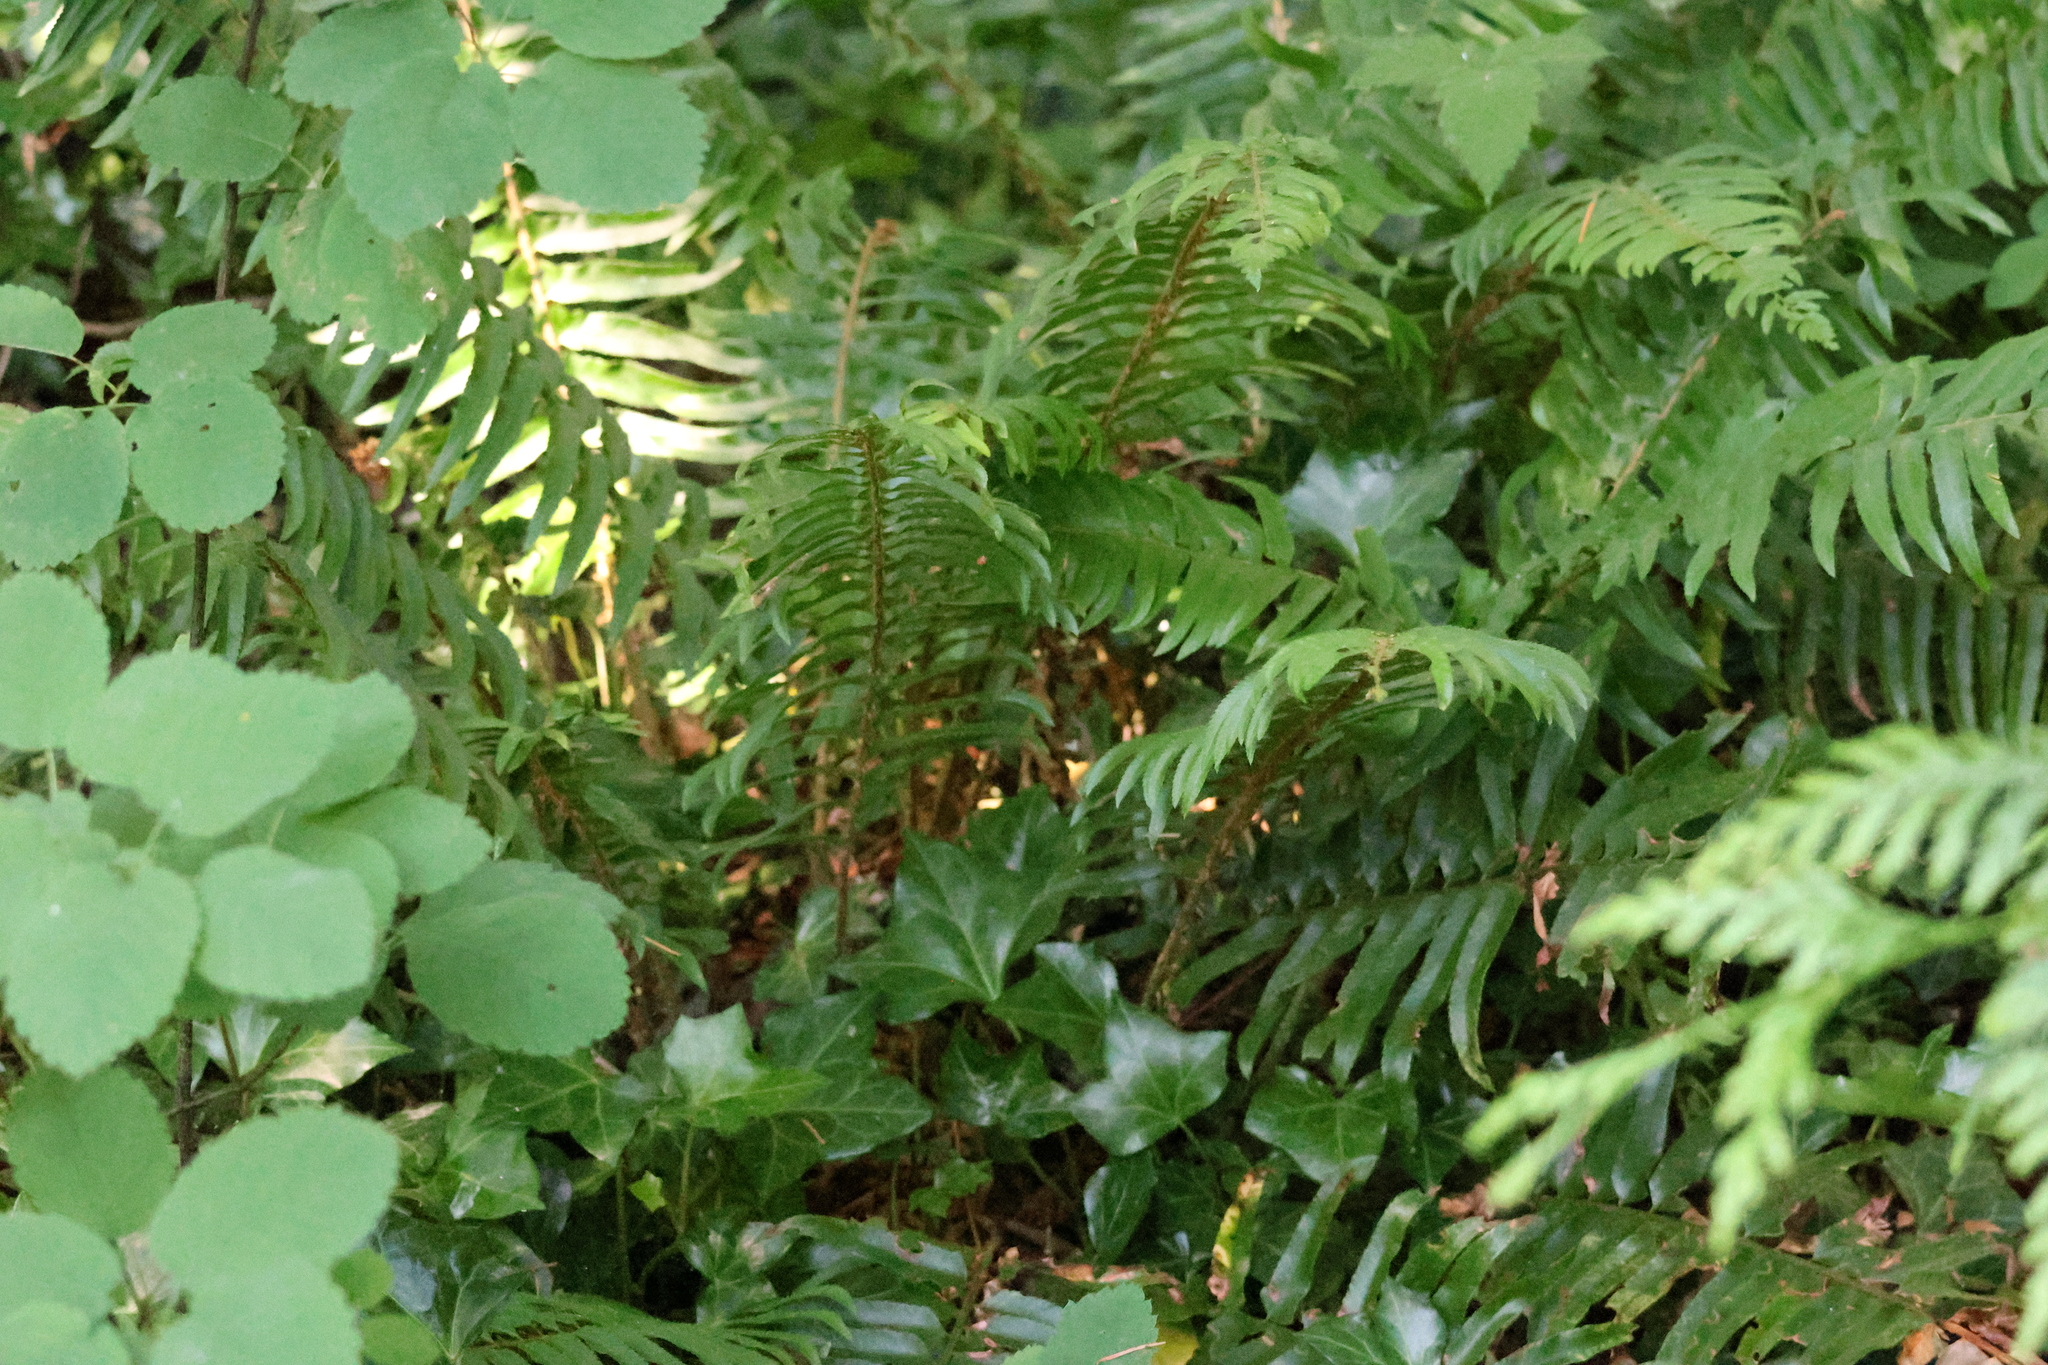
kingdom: Plantae
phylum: Tracheophyta
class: Polypodiopsida
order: Polypodiales
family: Dryopteridaceae
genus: Polystichum
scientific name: Polystichum munitum
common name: Western sword-fern
